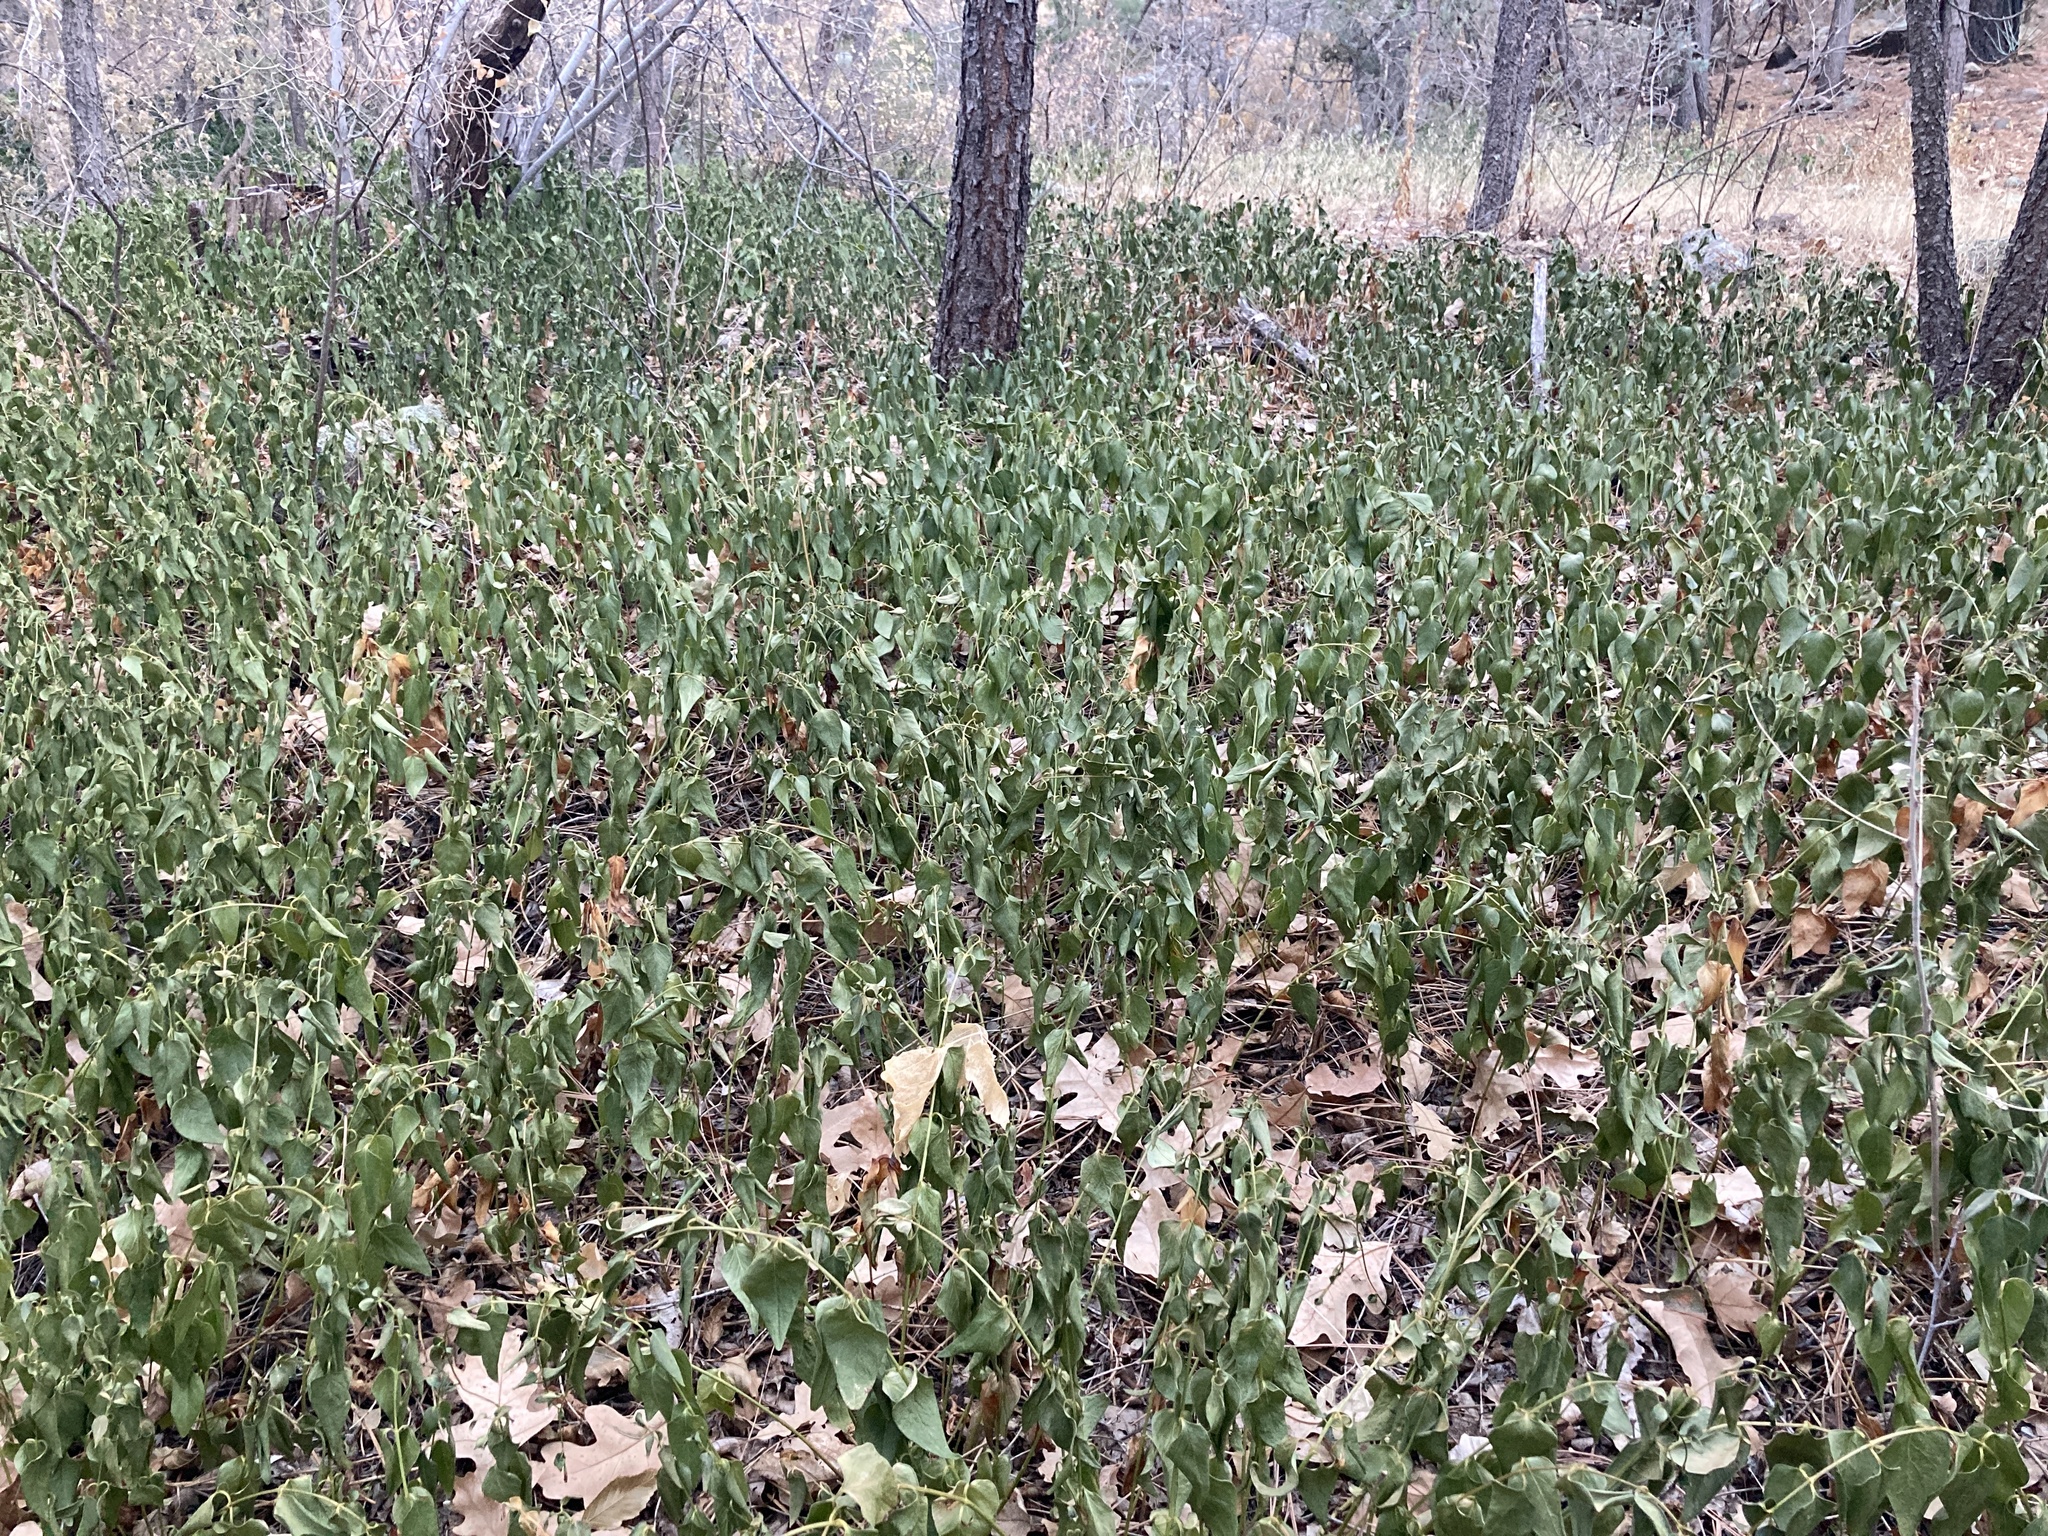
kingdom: Plantae
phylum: Tracheophyta
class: Magnoliopsida
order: Gentianales
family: Apocynaceae
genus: Vinca
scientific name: Vinca major
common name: Greater periwinkle
